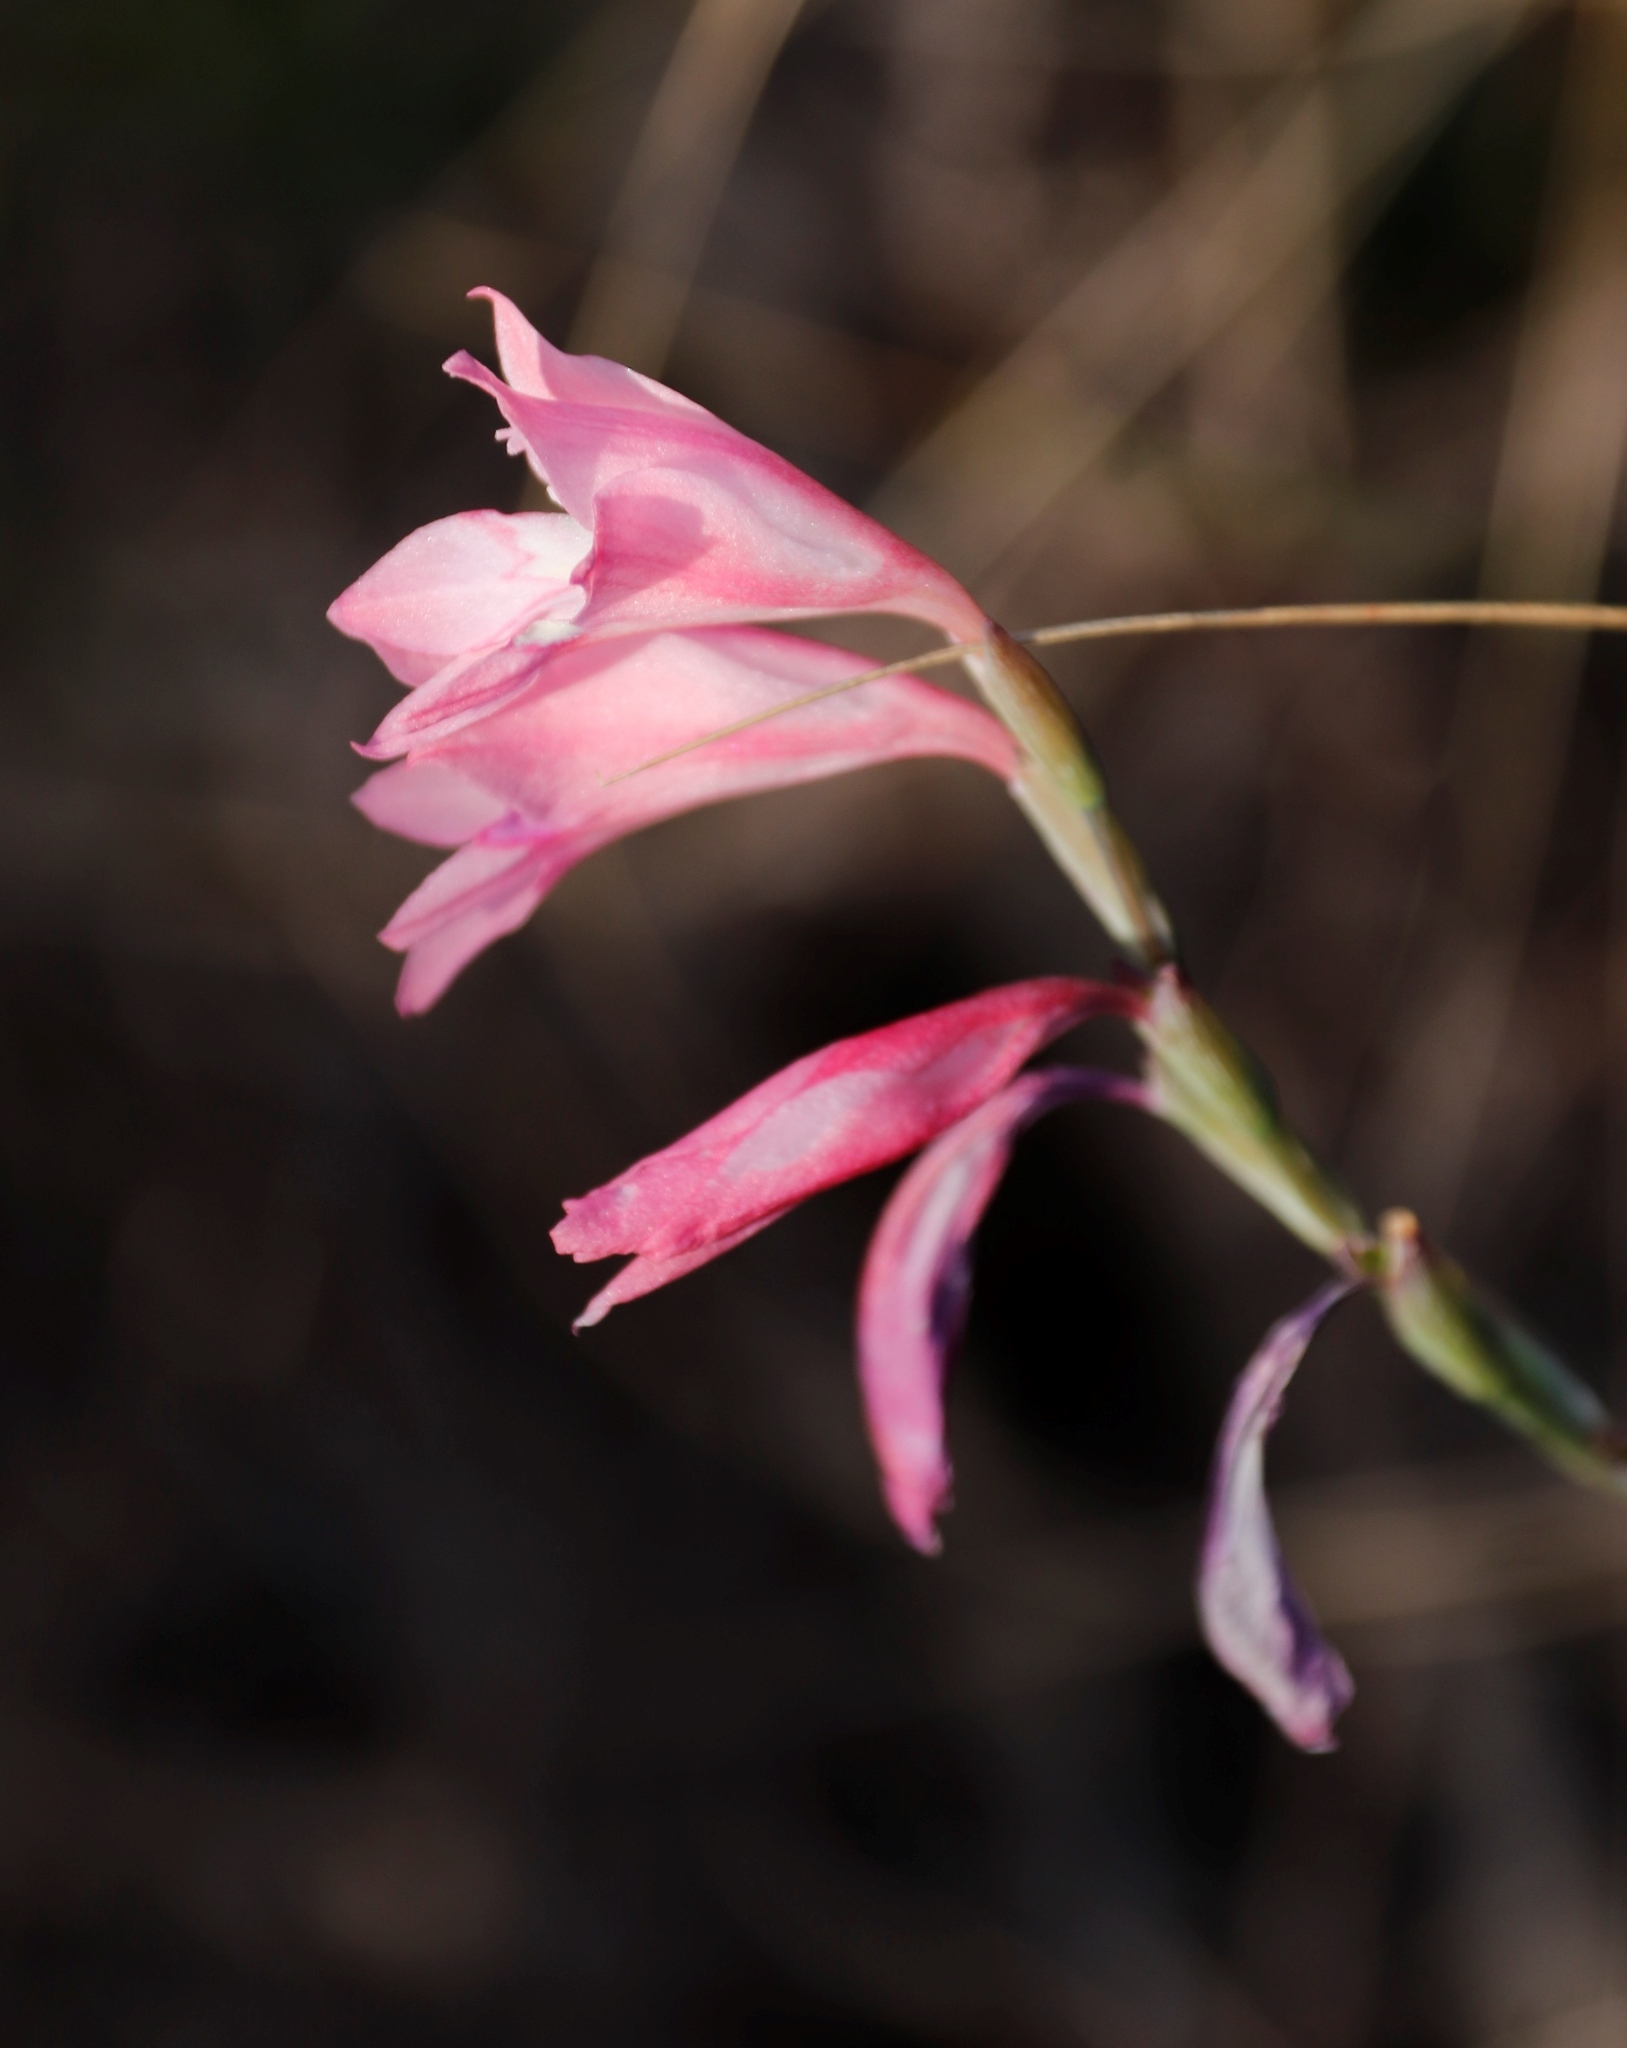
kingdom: Plantae
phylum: Tracheophyta
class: Liliopsida
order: Asparagales
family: Iridaceae
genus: Gladiolus
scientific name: Gladiolus brevifolius
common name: March pypie
